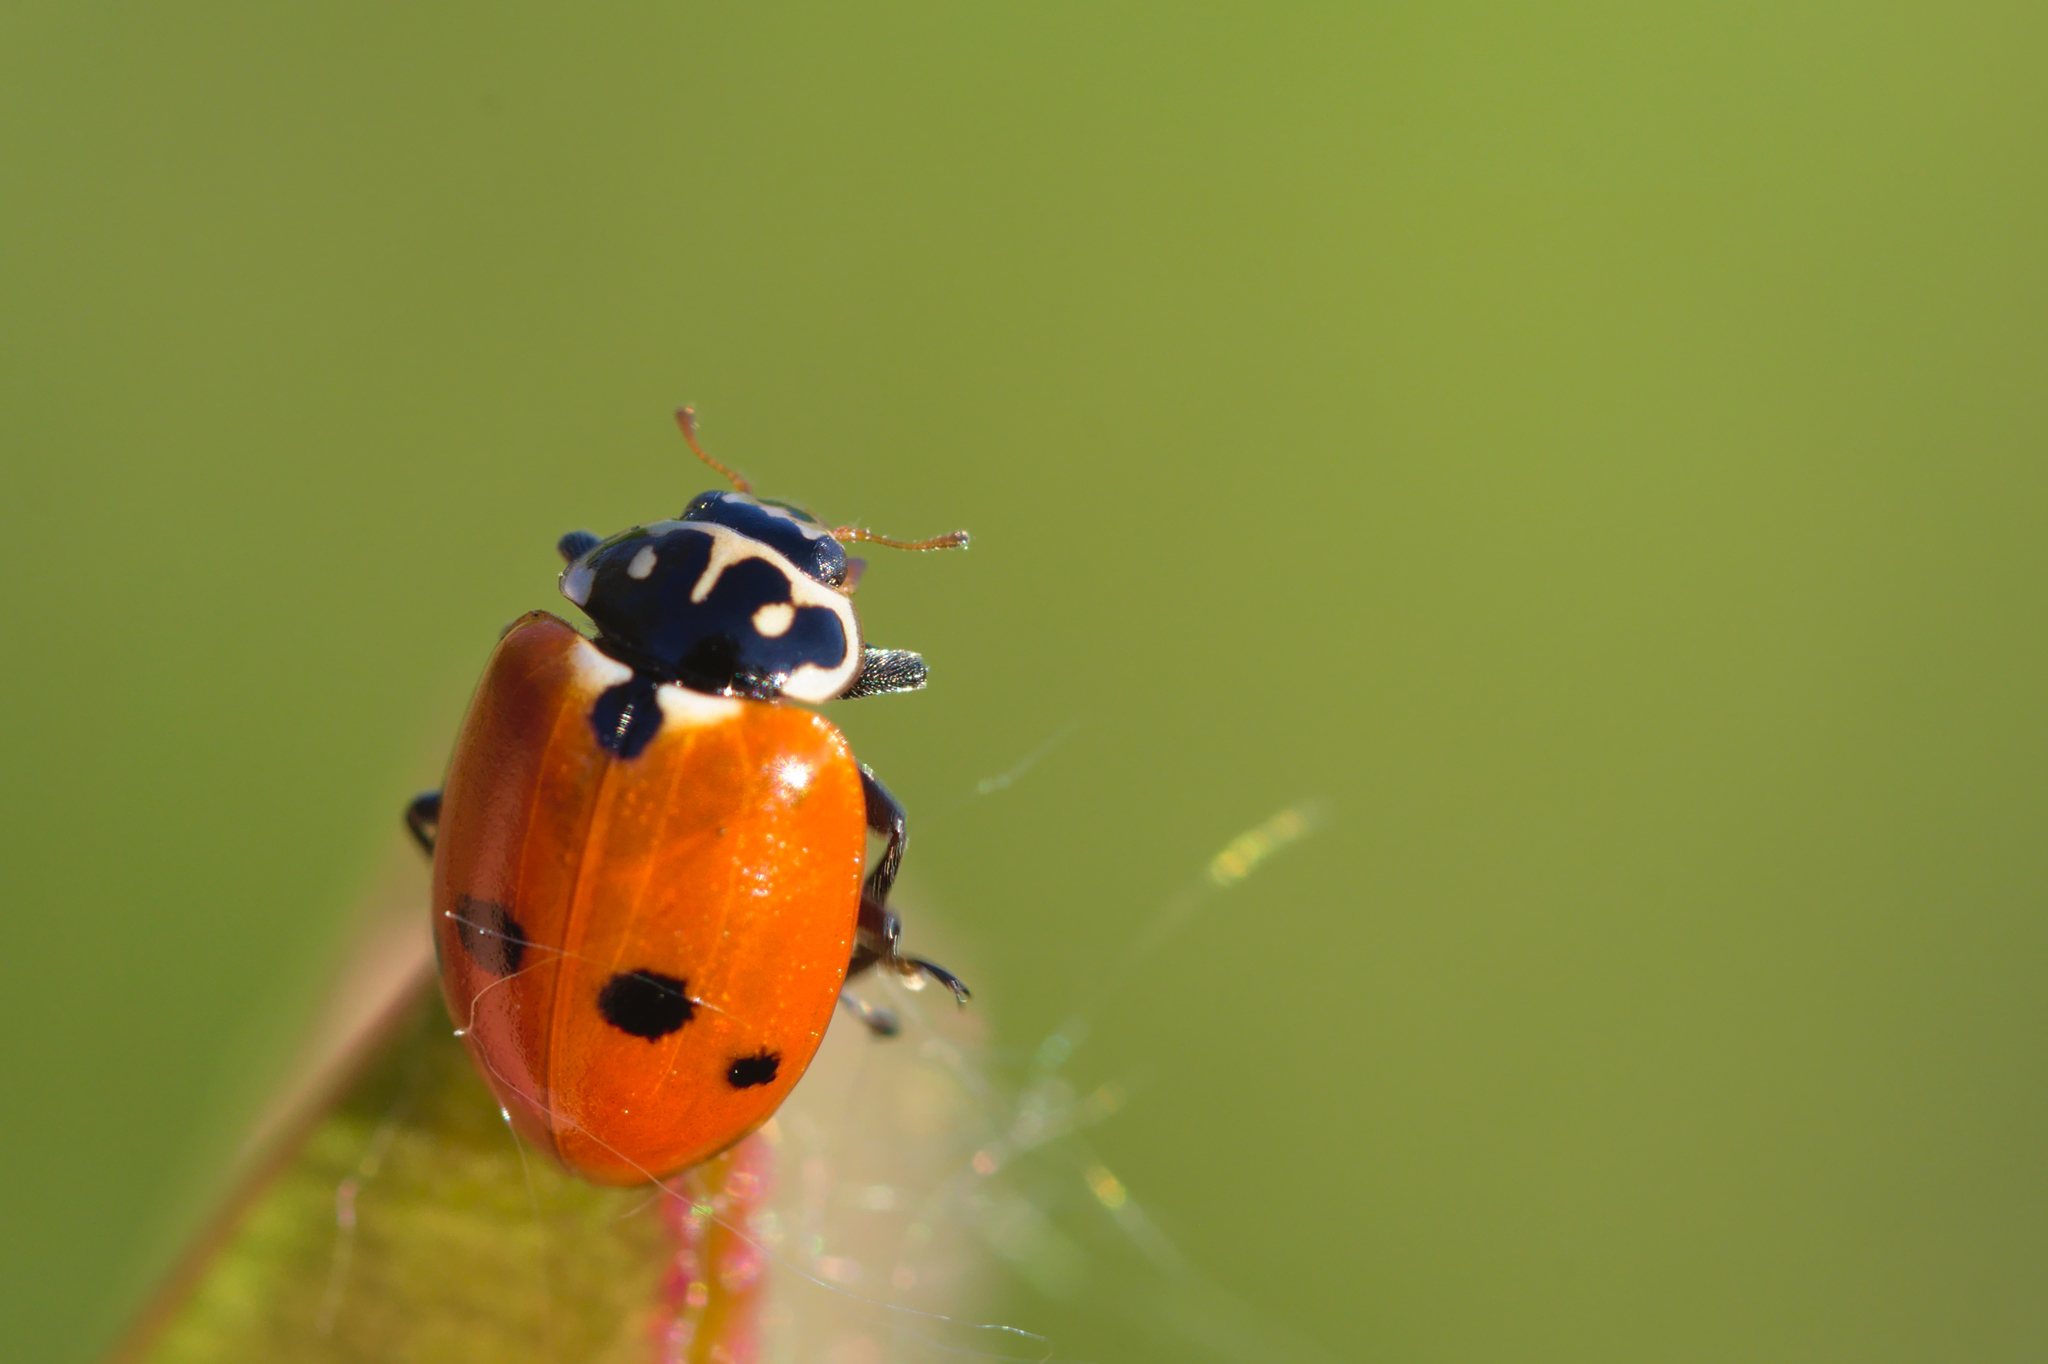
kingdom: Animalia
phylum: Arthropoda
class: Insecta
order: Coleoptera
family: Coccinellidae
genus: Hippodamia
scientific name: Hippodamia variegata
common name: Ladybird beetle
